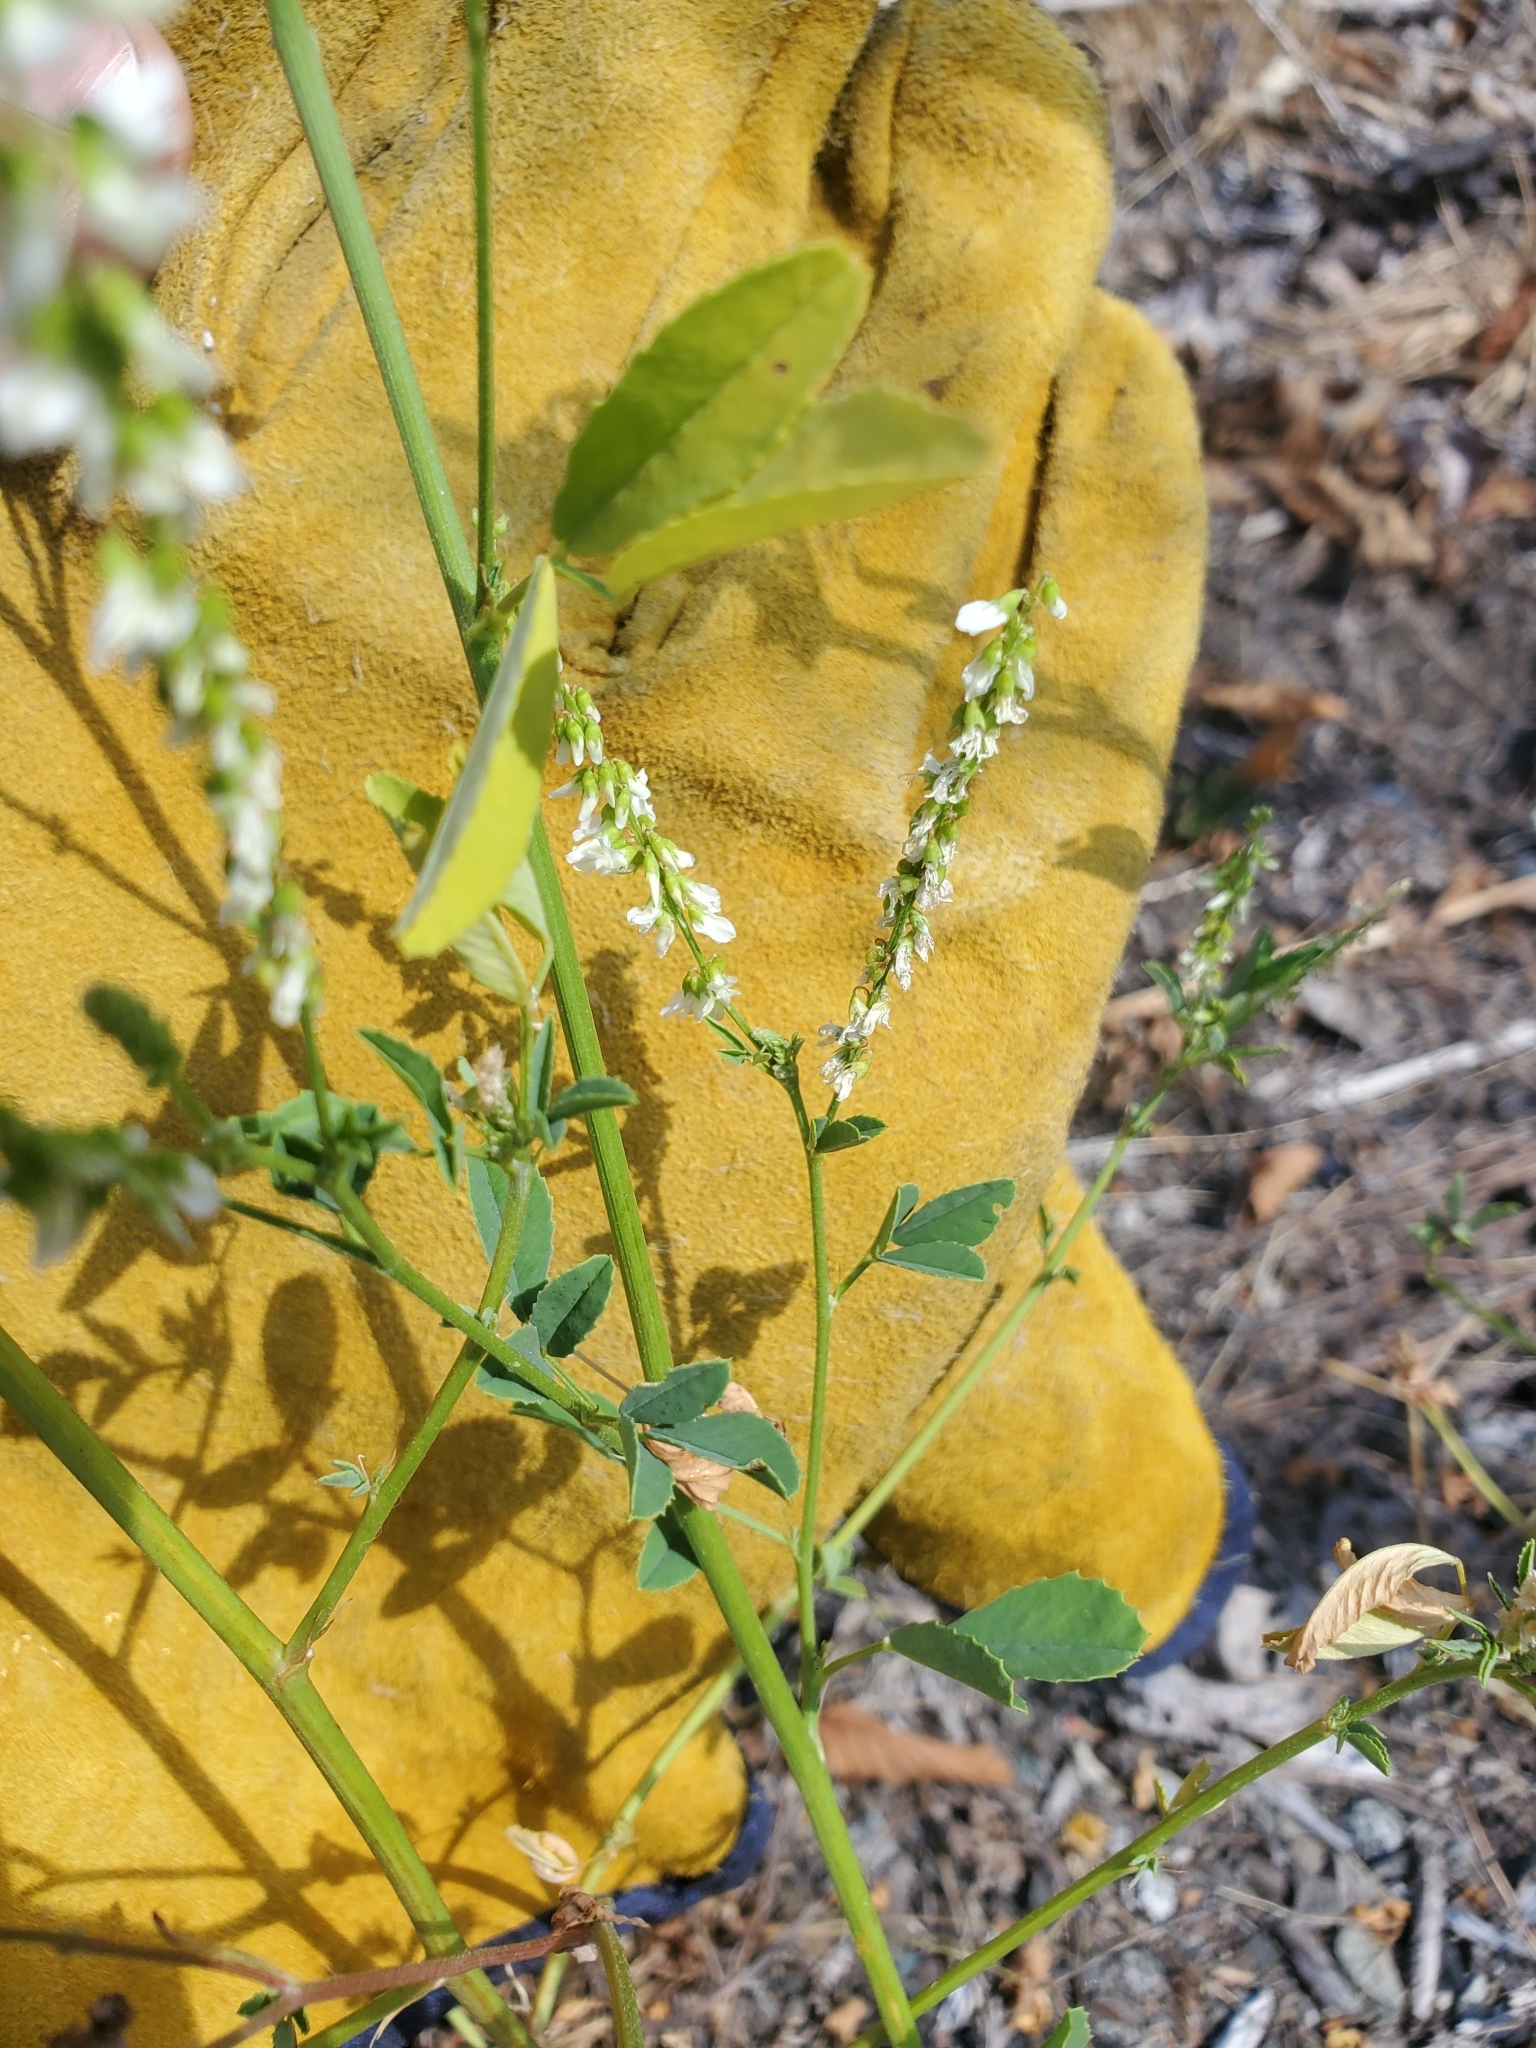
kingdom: Plantae
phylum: Tracheophyta
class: Magnoliopsida
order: Fabales
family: Fabaceae
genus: Melilotus
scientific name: Melilotus albus
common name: White melilot
